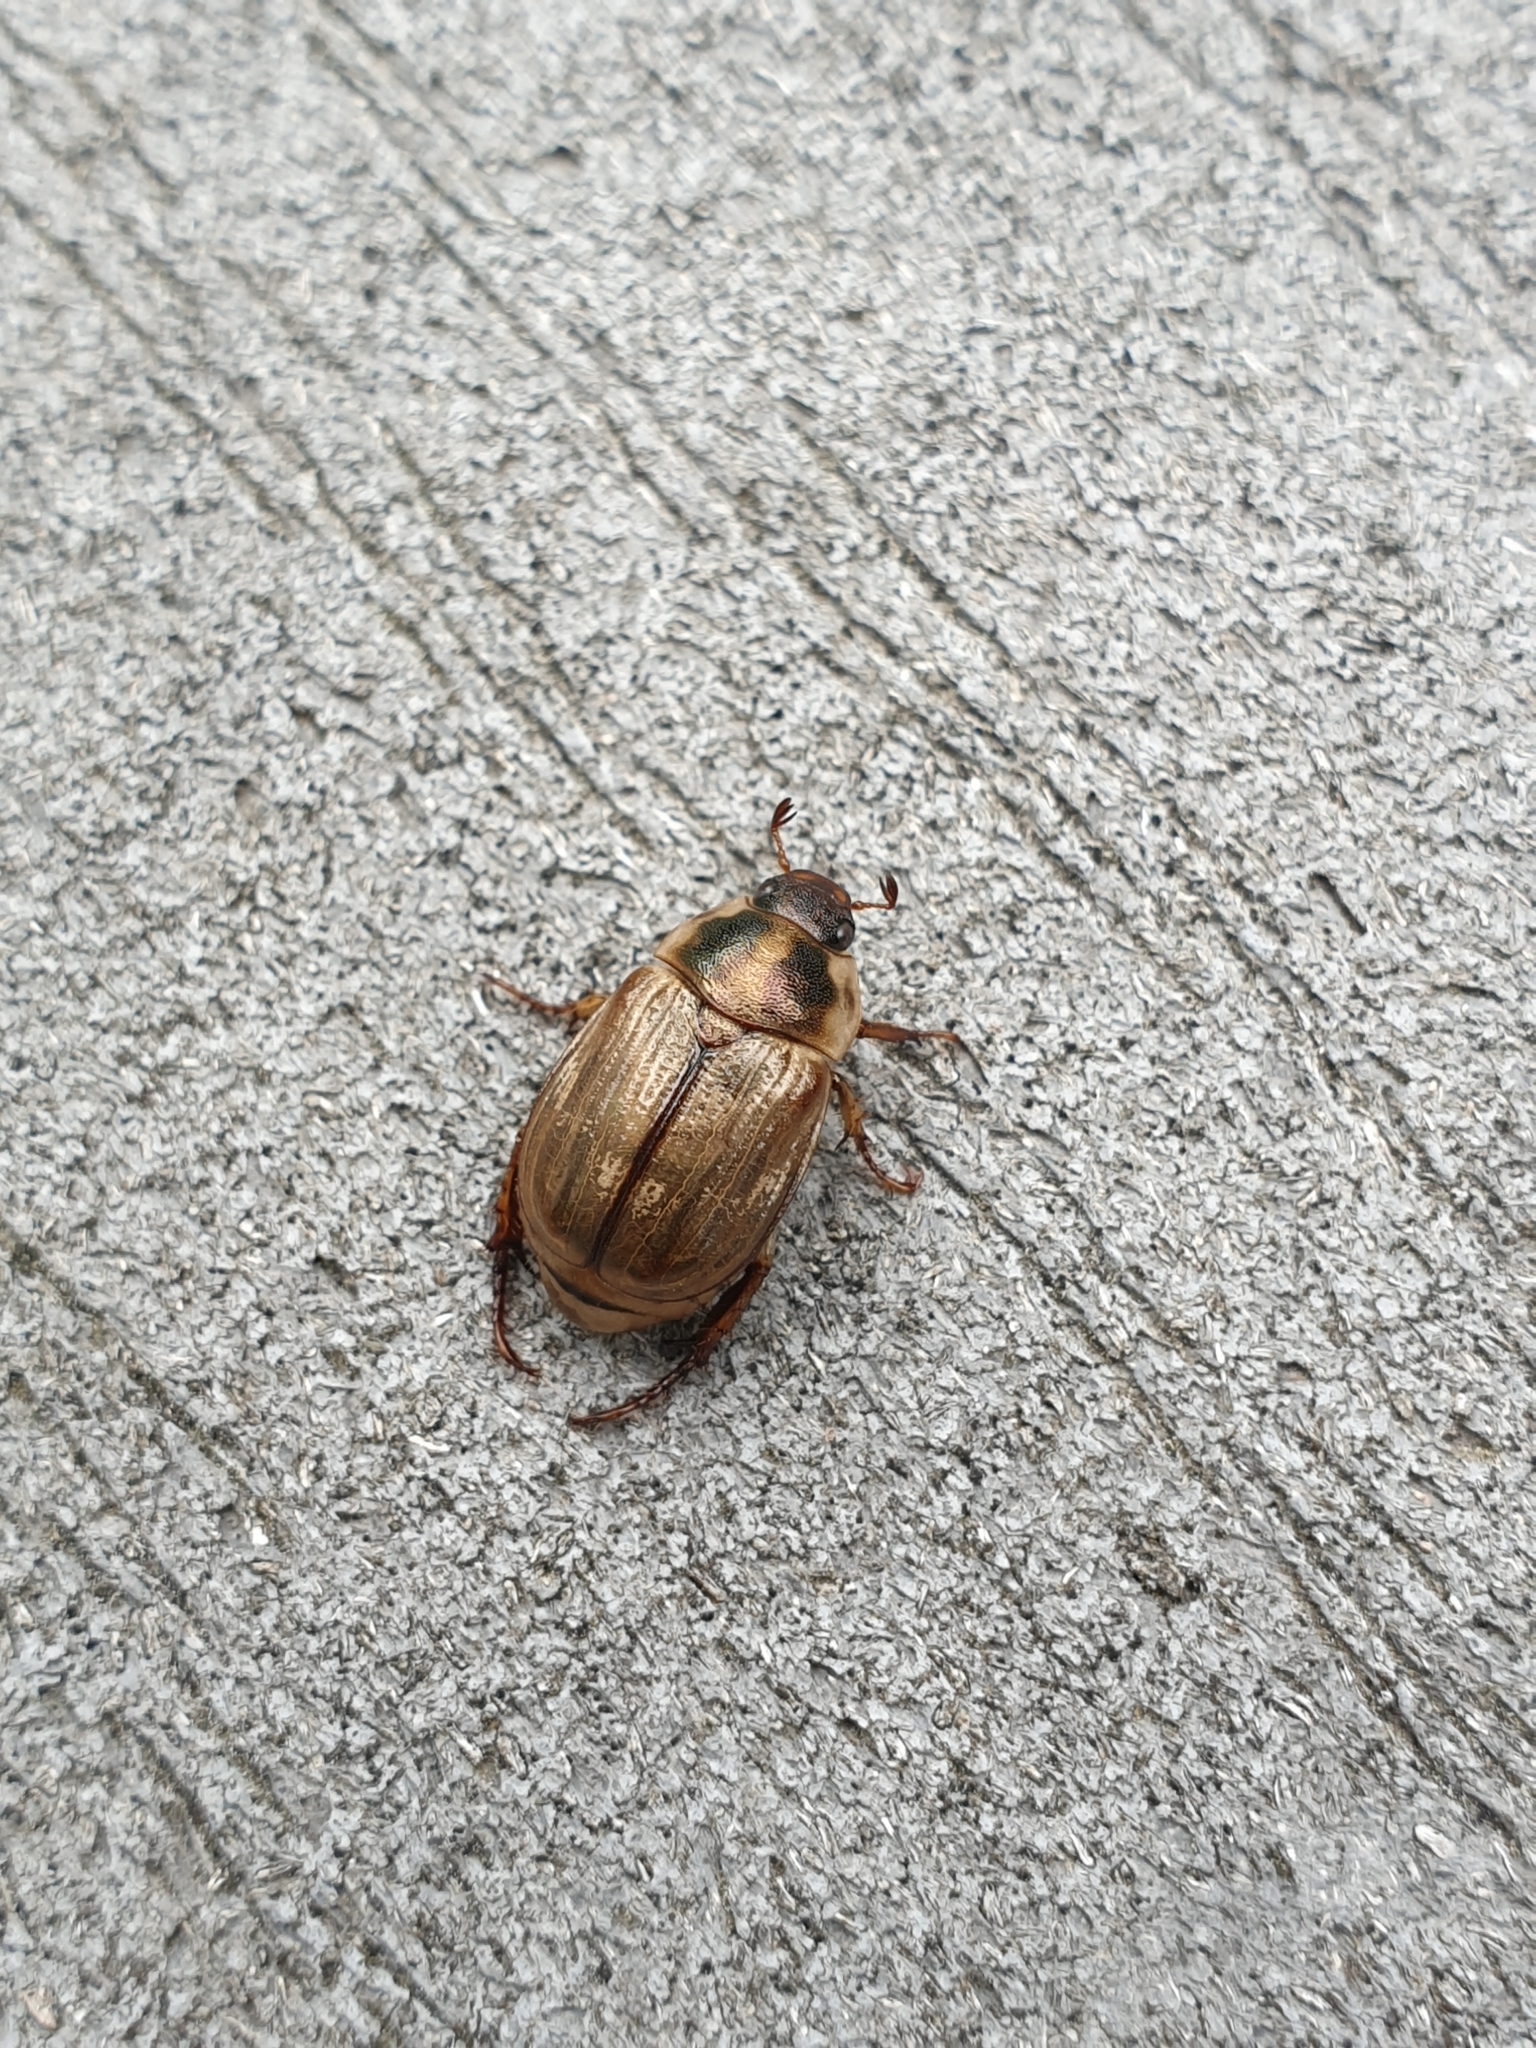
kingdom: Animalia
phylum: Arthropoda
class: Insecta
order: Coleoptera
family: Scarabaeidae
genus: Exomala
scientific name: Exomala orientalis
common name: Oriental beetle
